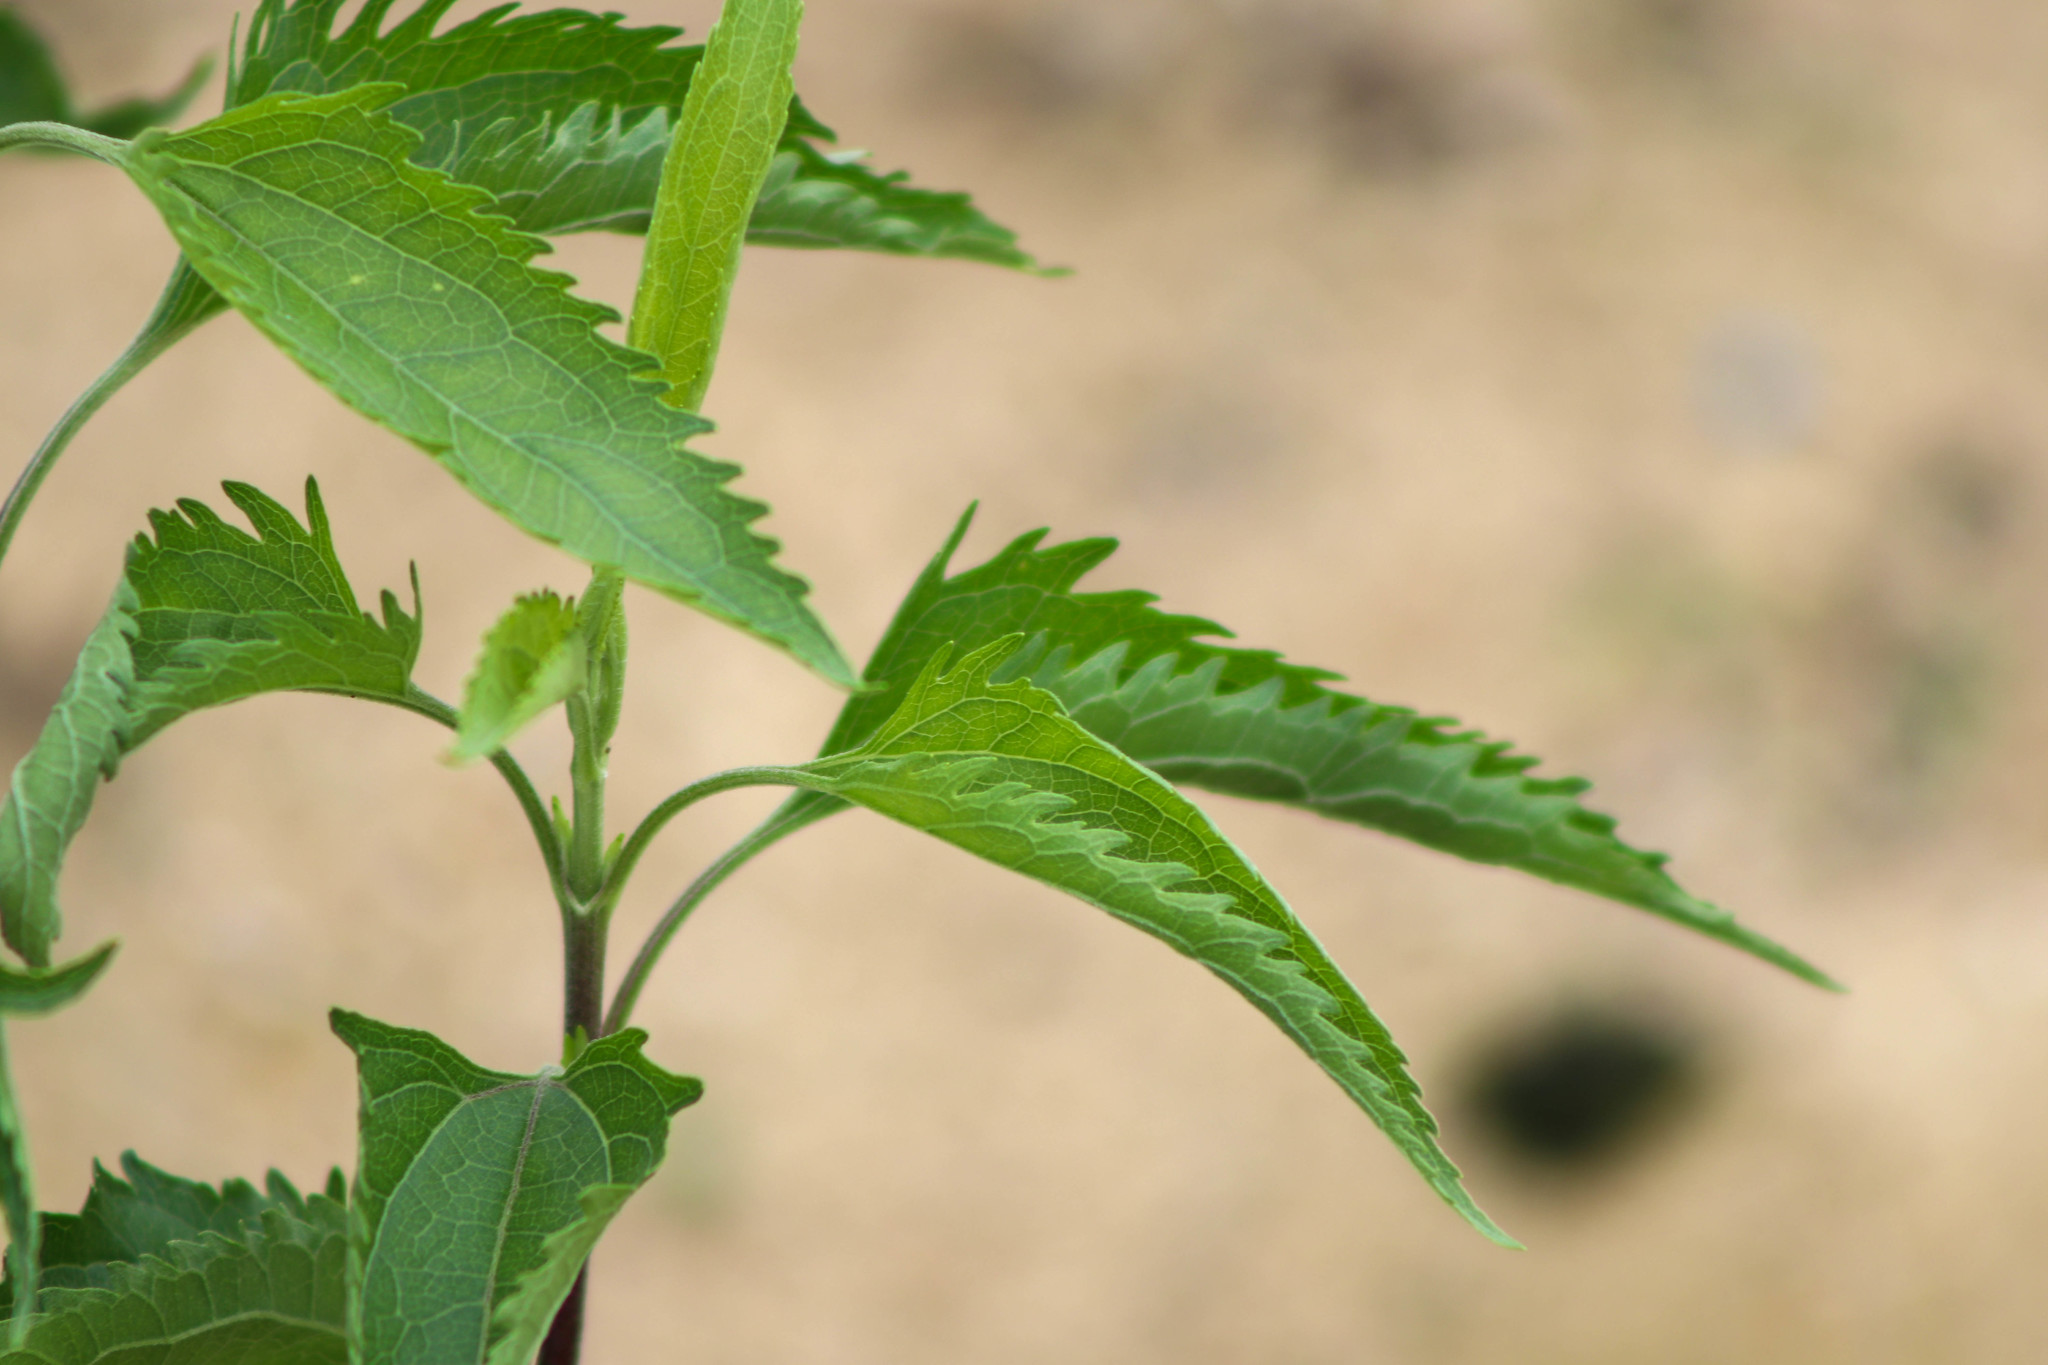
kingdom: Plantae
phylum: Tracheophyta
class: Magnoliopsida
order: Asterales
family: Asteraceae
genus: Eupatorium
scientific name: Eupatorium serotinum
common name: Late boneset
